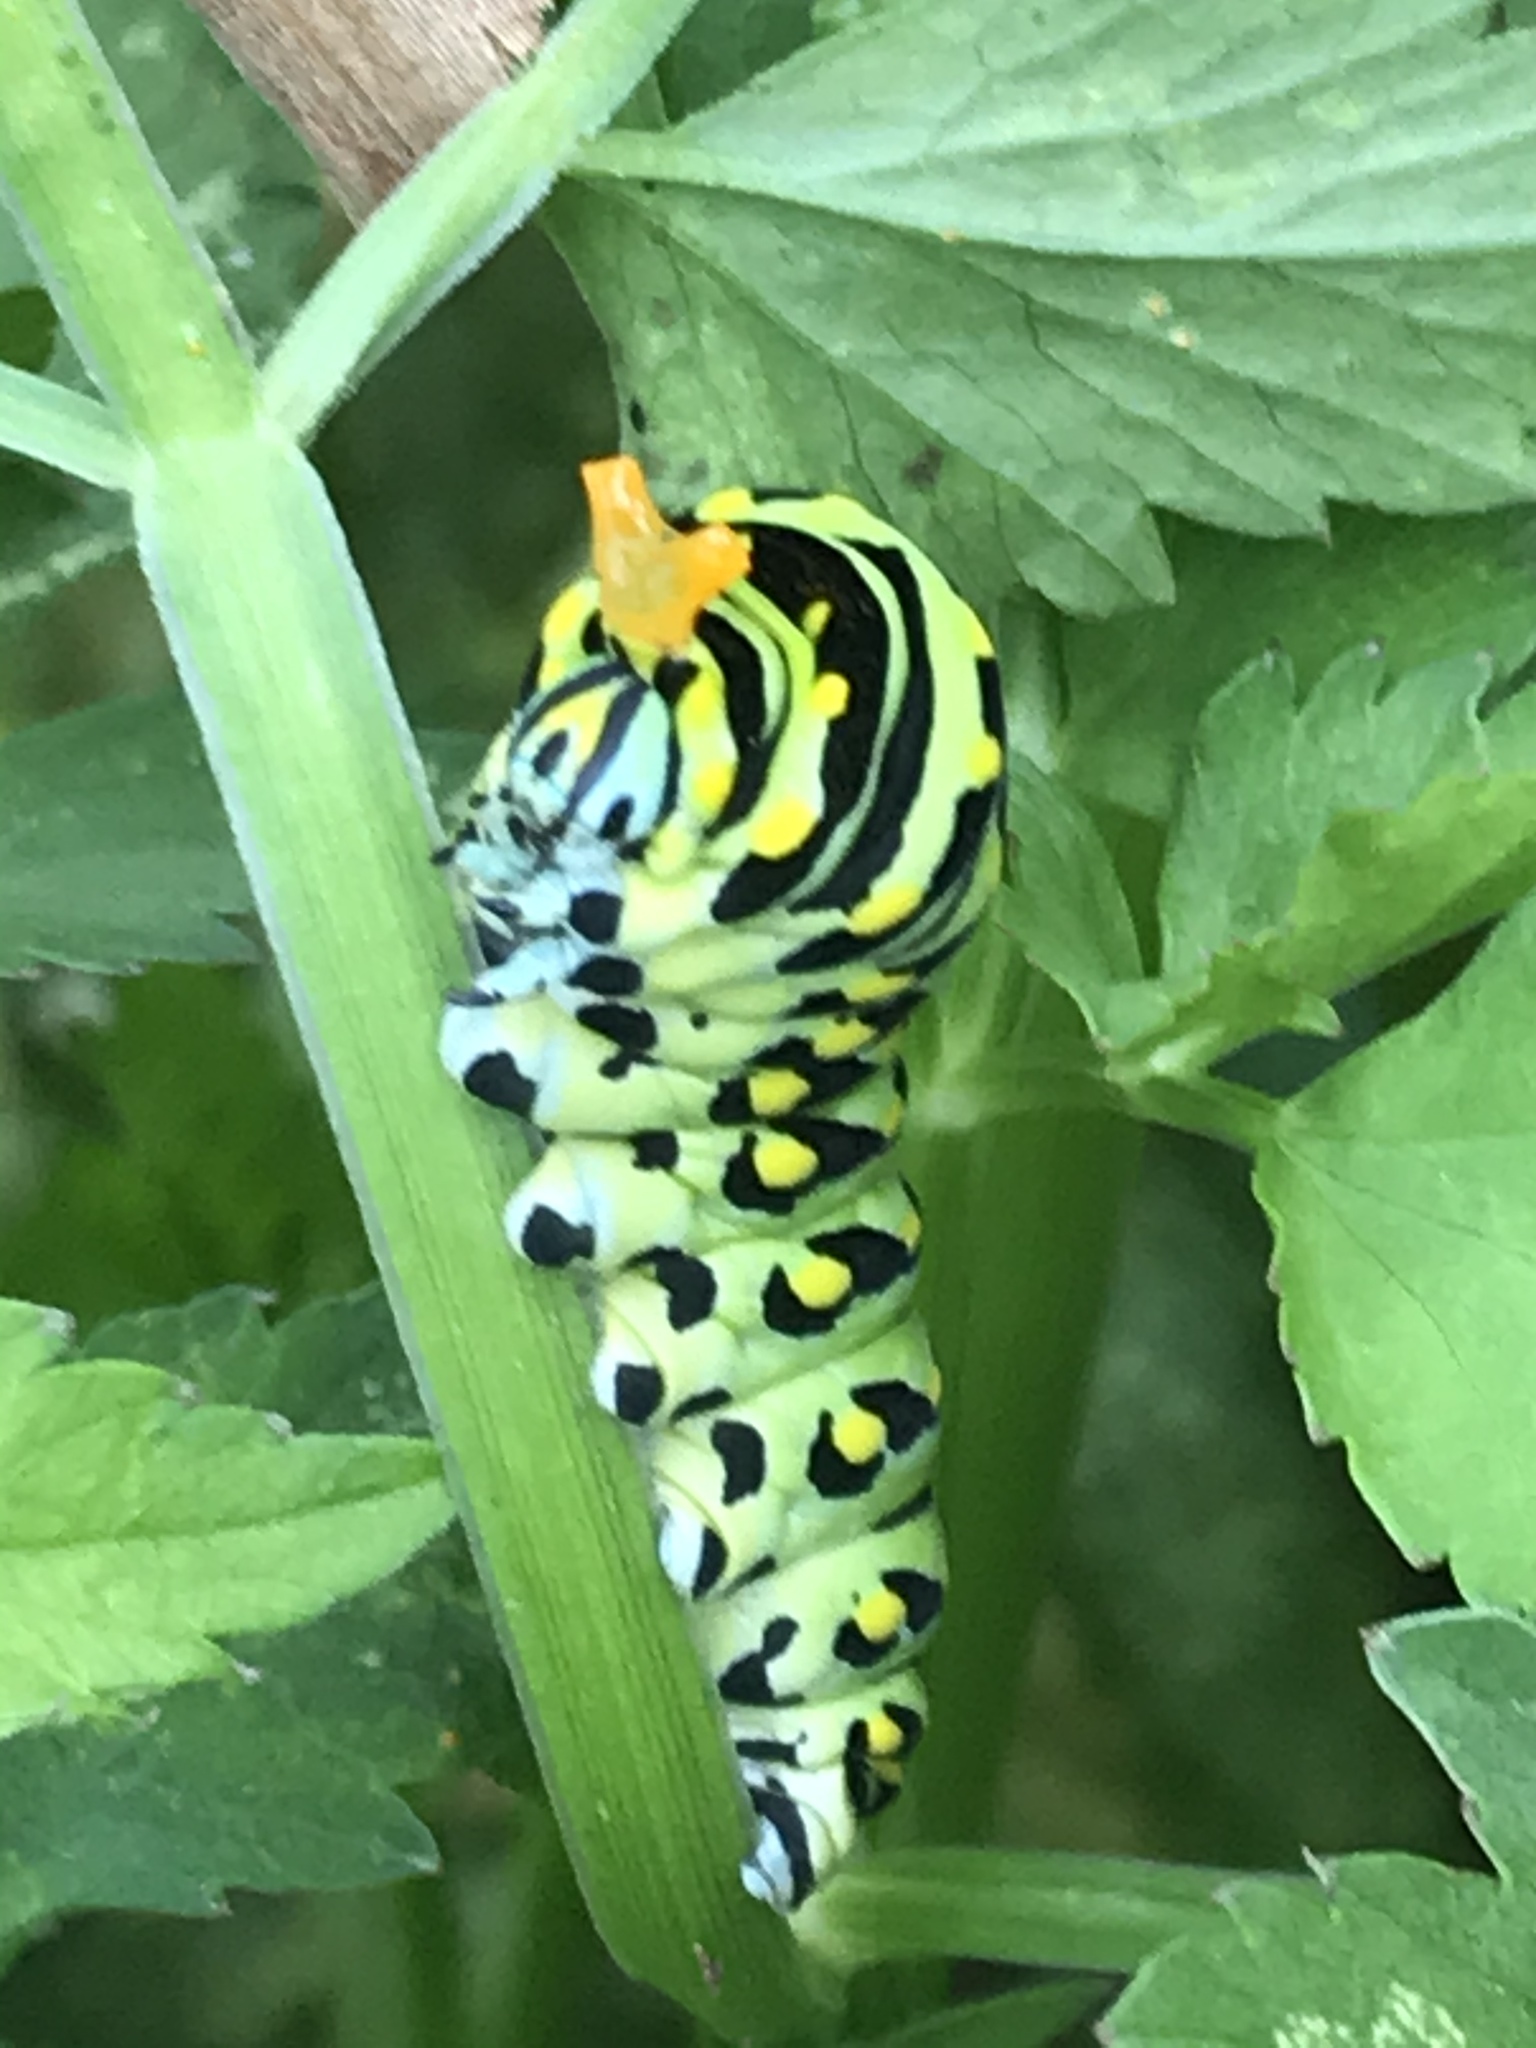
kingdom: Animalia
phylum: Arthropoda
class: Insecta
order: Lepidoptera
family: Papilionidae
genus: Papilio
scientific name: Papilio polyxenes
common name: Black swallowtail
